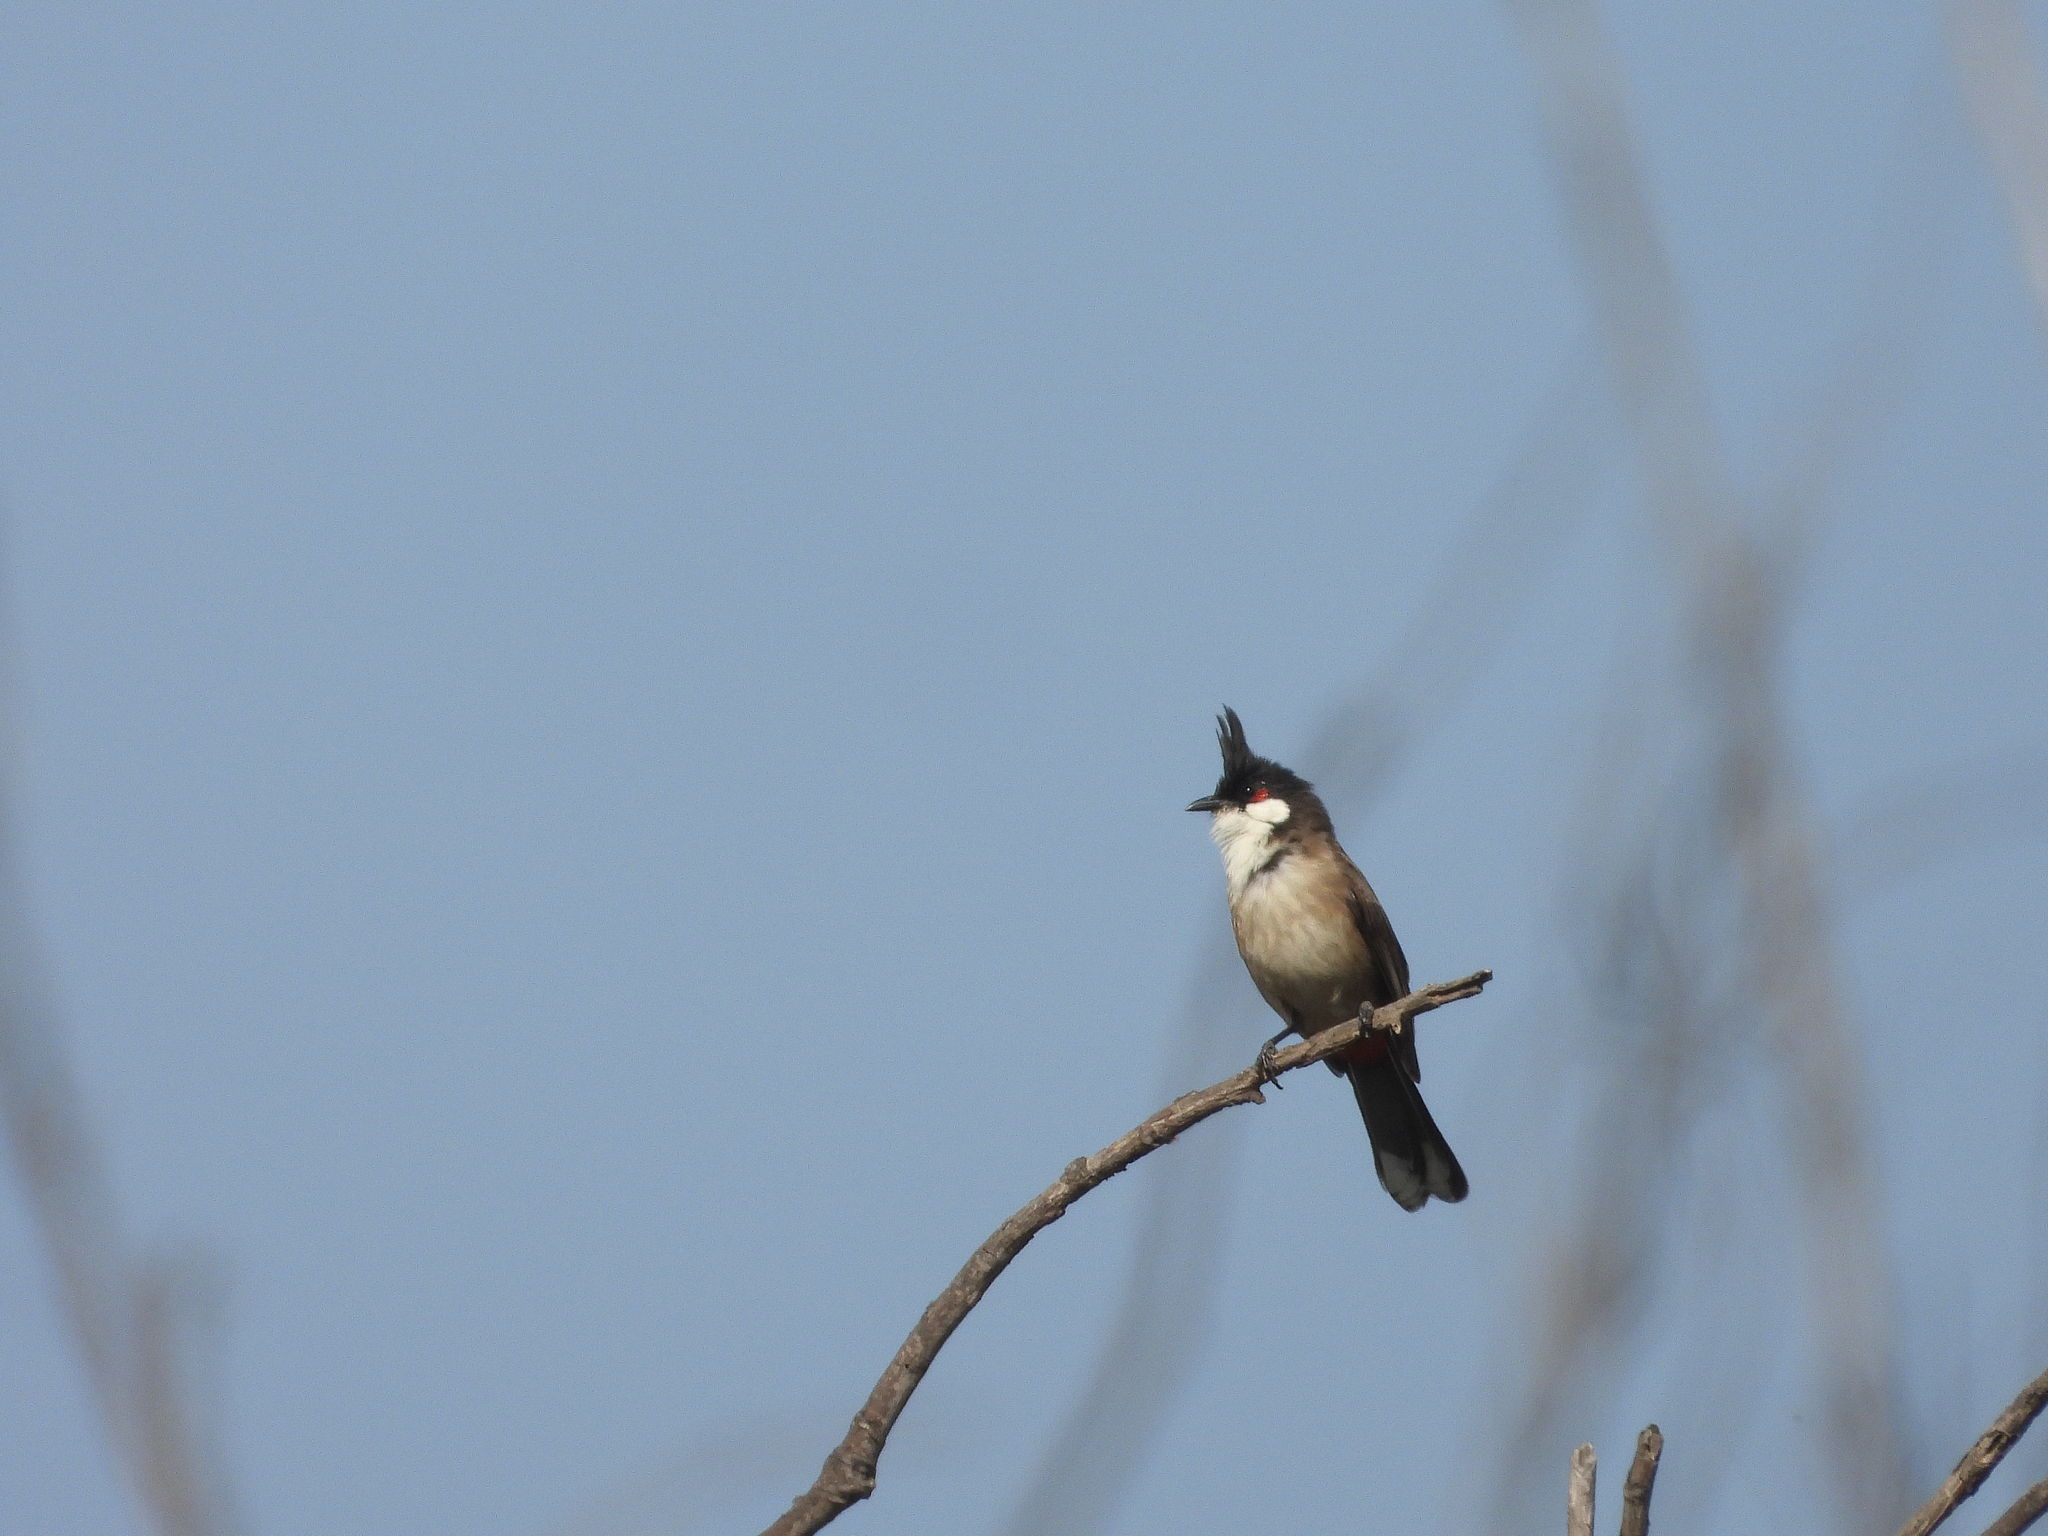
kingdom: Animalia
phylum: Chordata
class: Aves
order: Passeriformes
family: Pycnonotidae
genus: Pycnonotus
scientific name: Pycnonotus jocosus
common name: Red-whiskered bulbul
